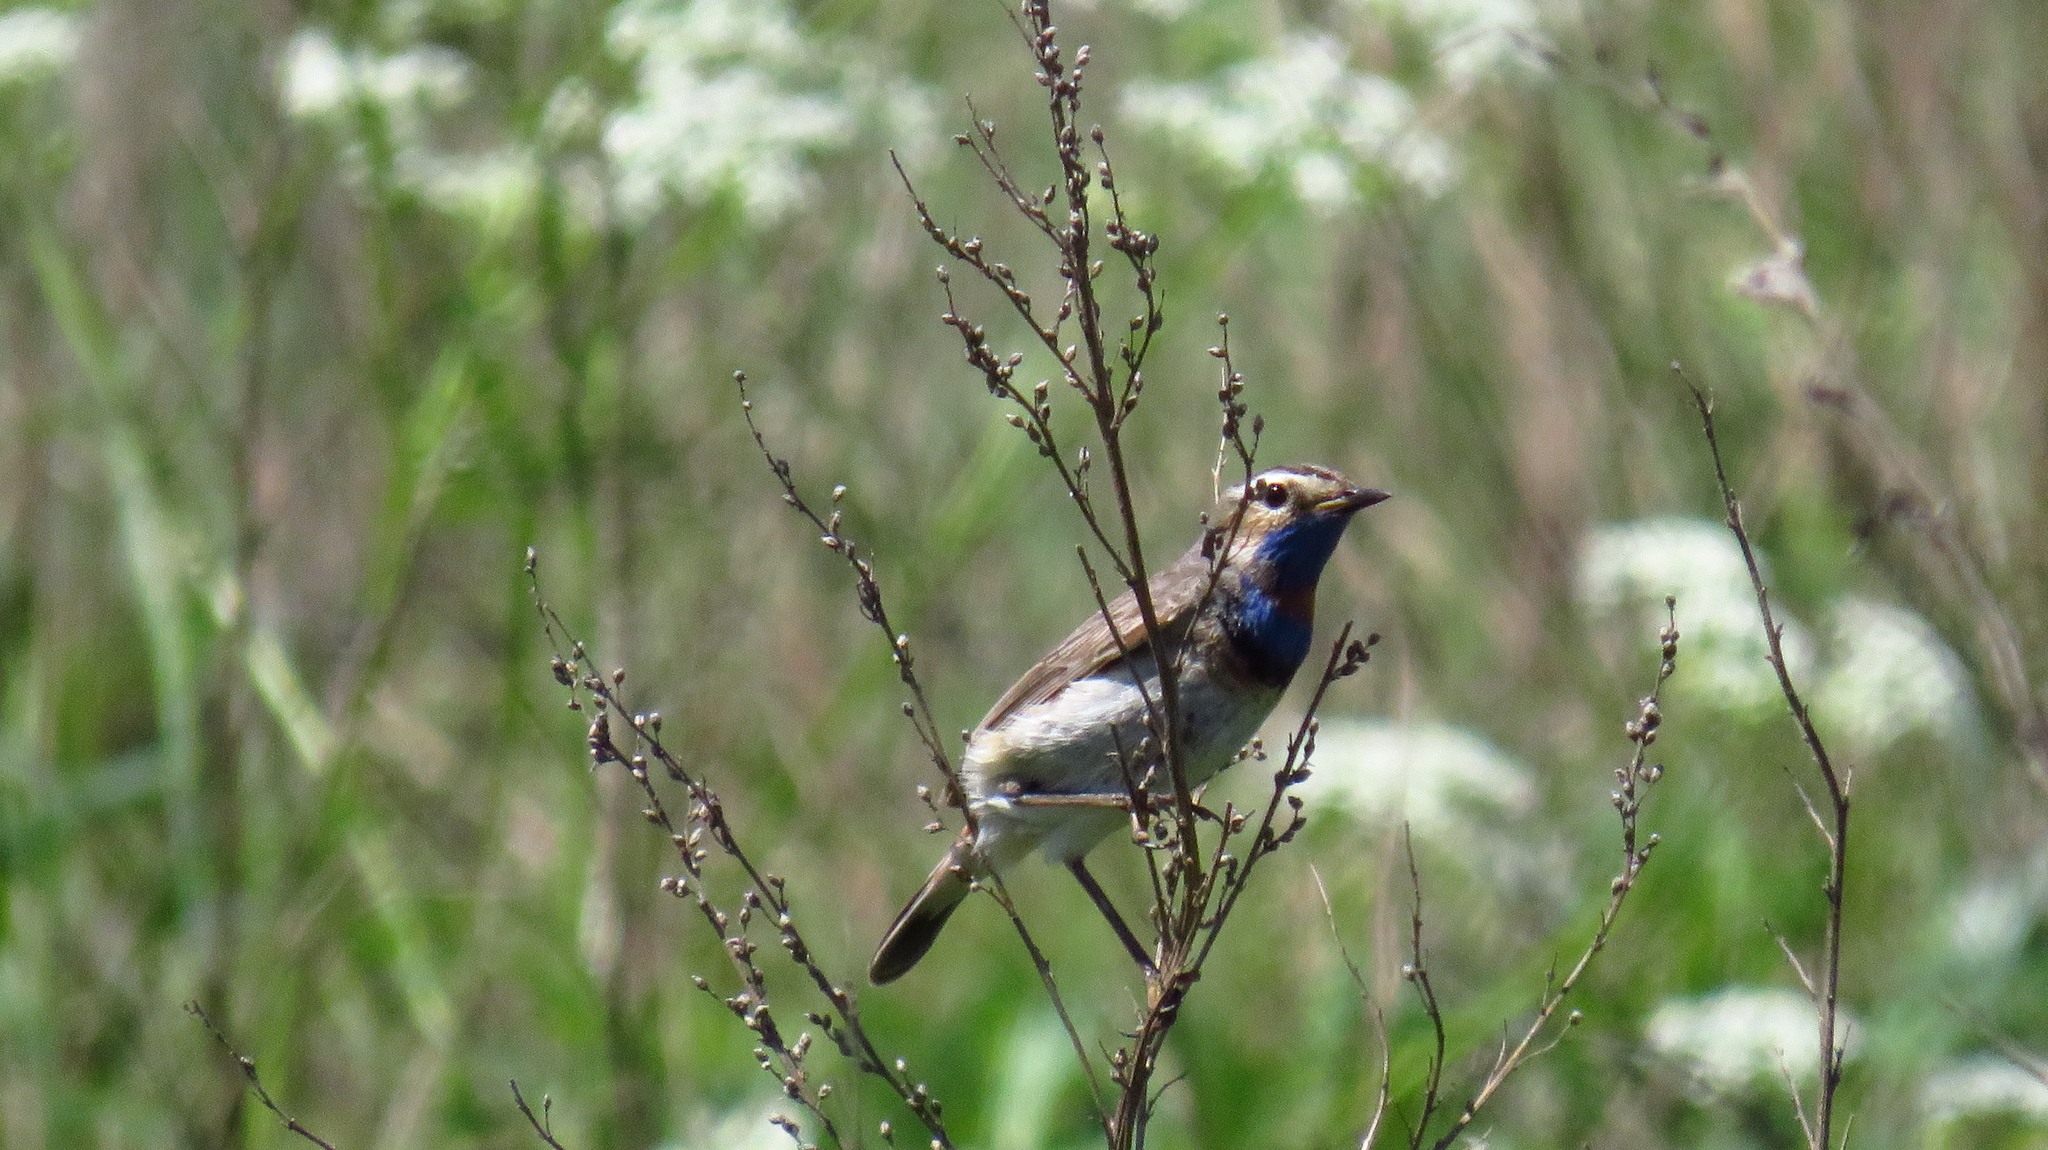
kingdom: Animalia
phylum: Chordata
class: Aves
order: Passeriformes
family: Muscicapidae
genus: Luscinia
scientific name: Luscinia svecica
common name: Bluethroat
